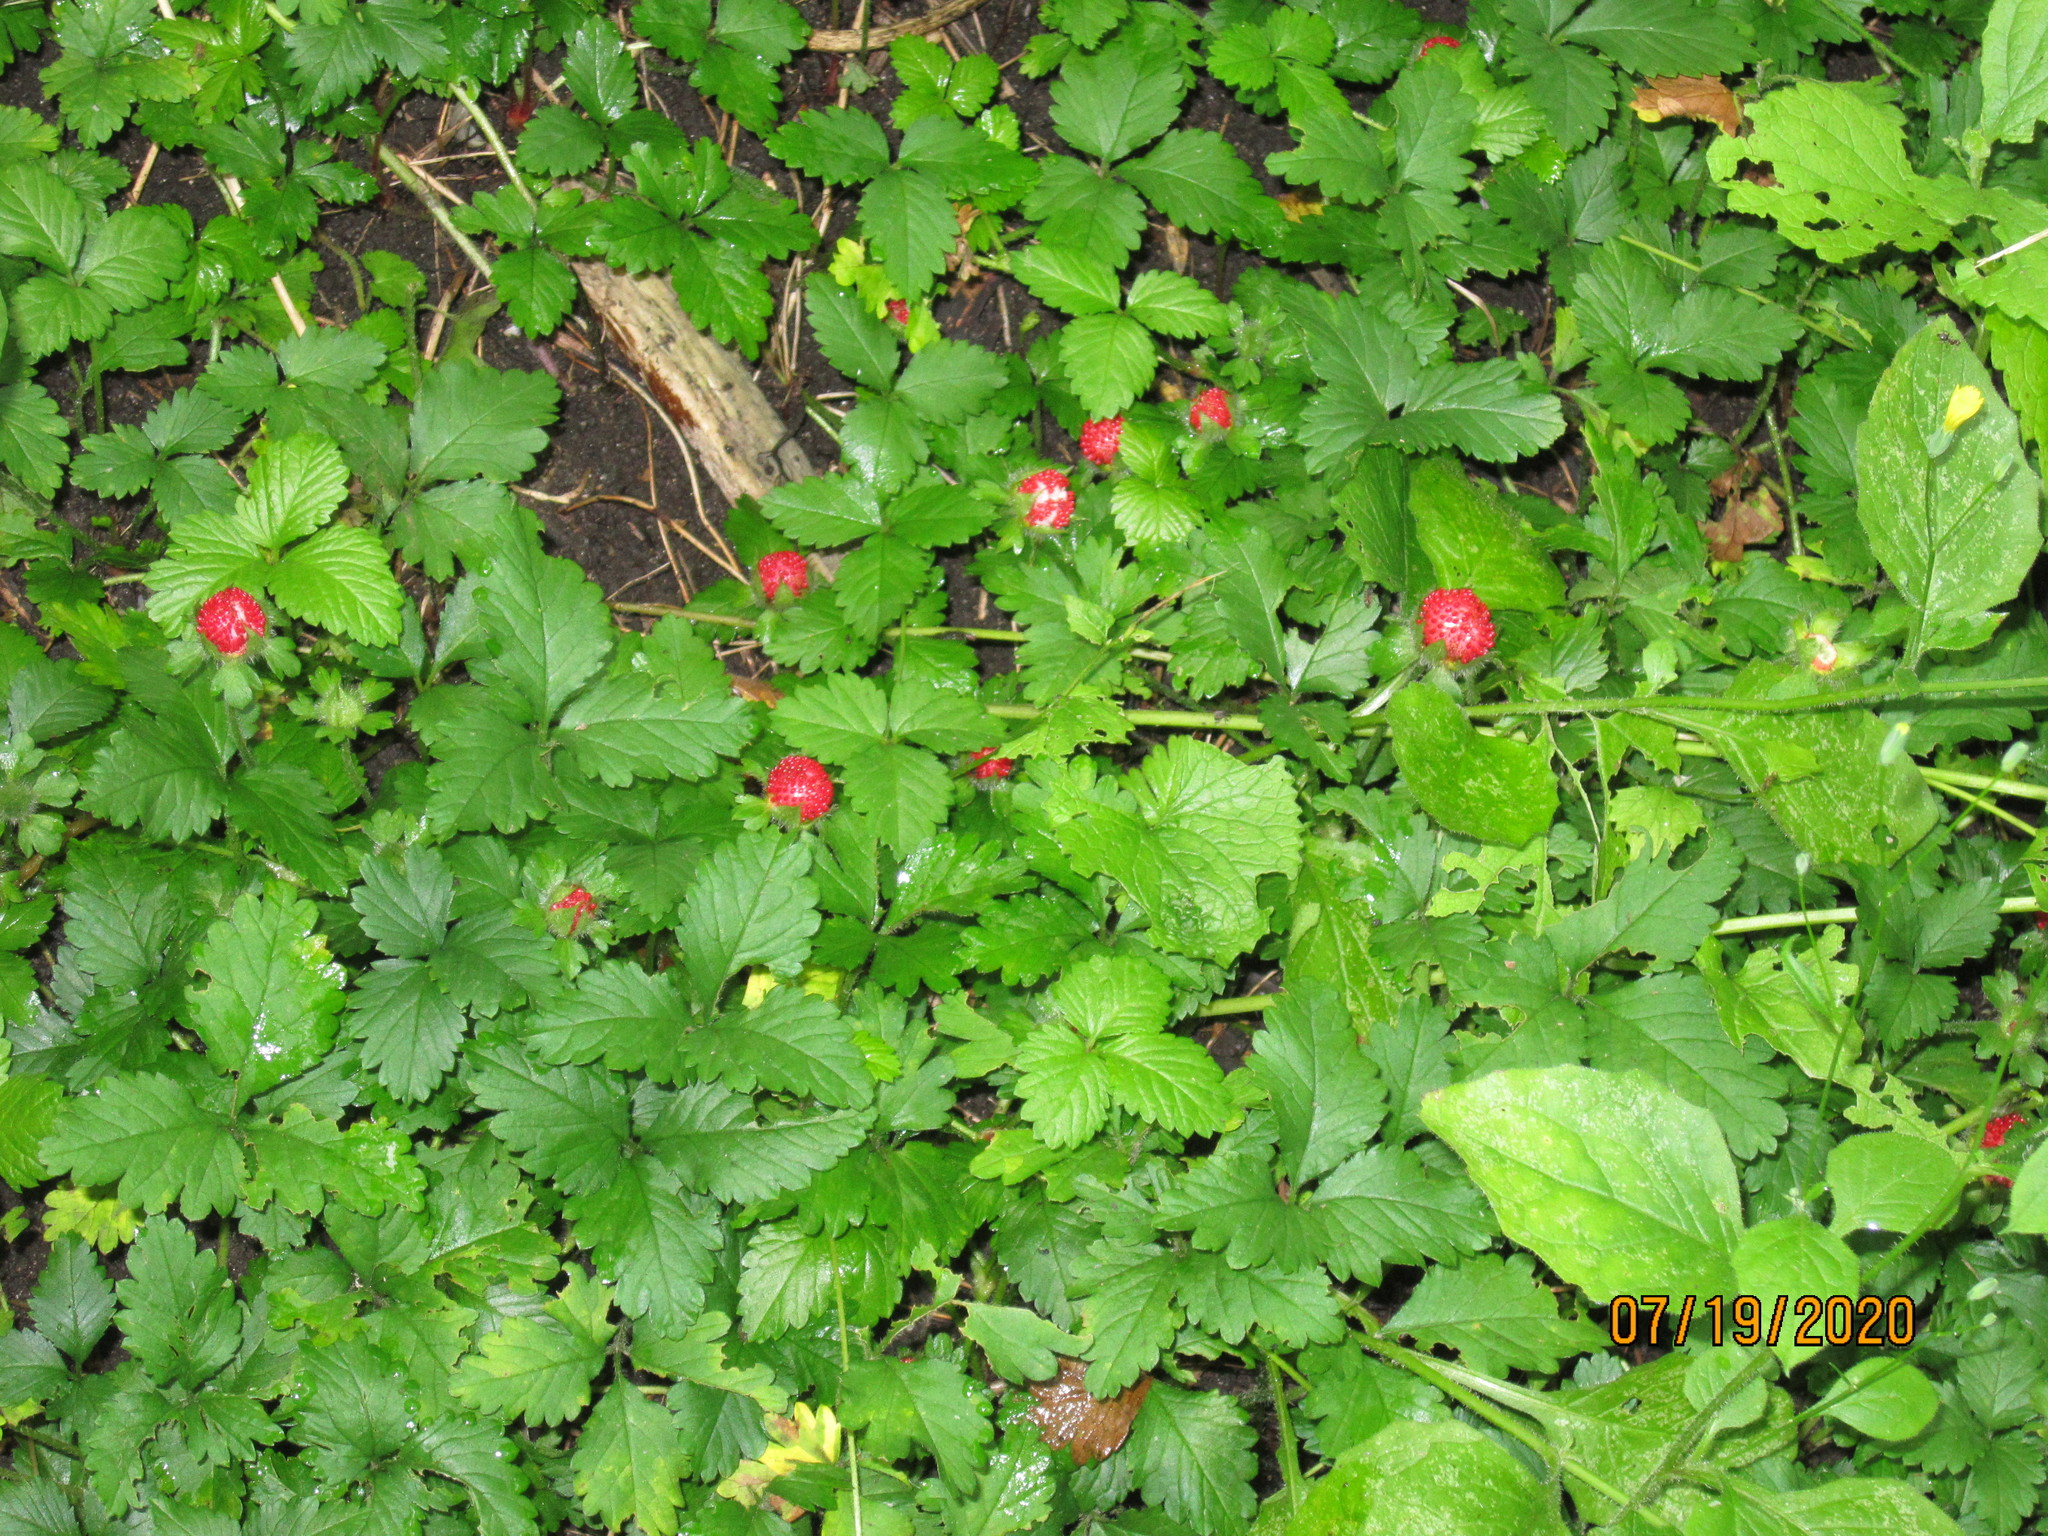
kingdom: Plantae
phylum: Tracheophyta
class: Magnoliopsida
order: Rosales
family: Rosaceae
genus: Potentilla
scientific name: Potentilla indica
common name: Yellow-flowered strawberry
